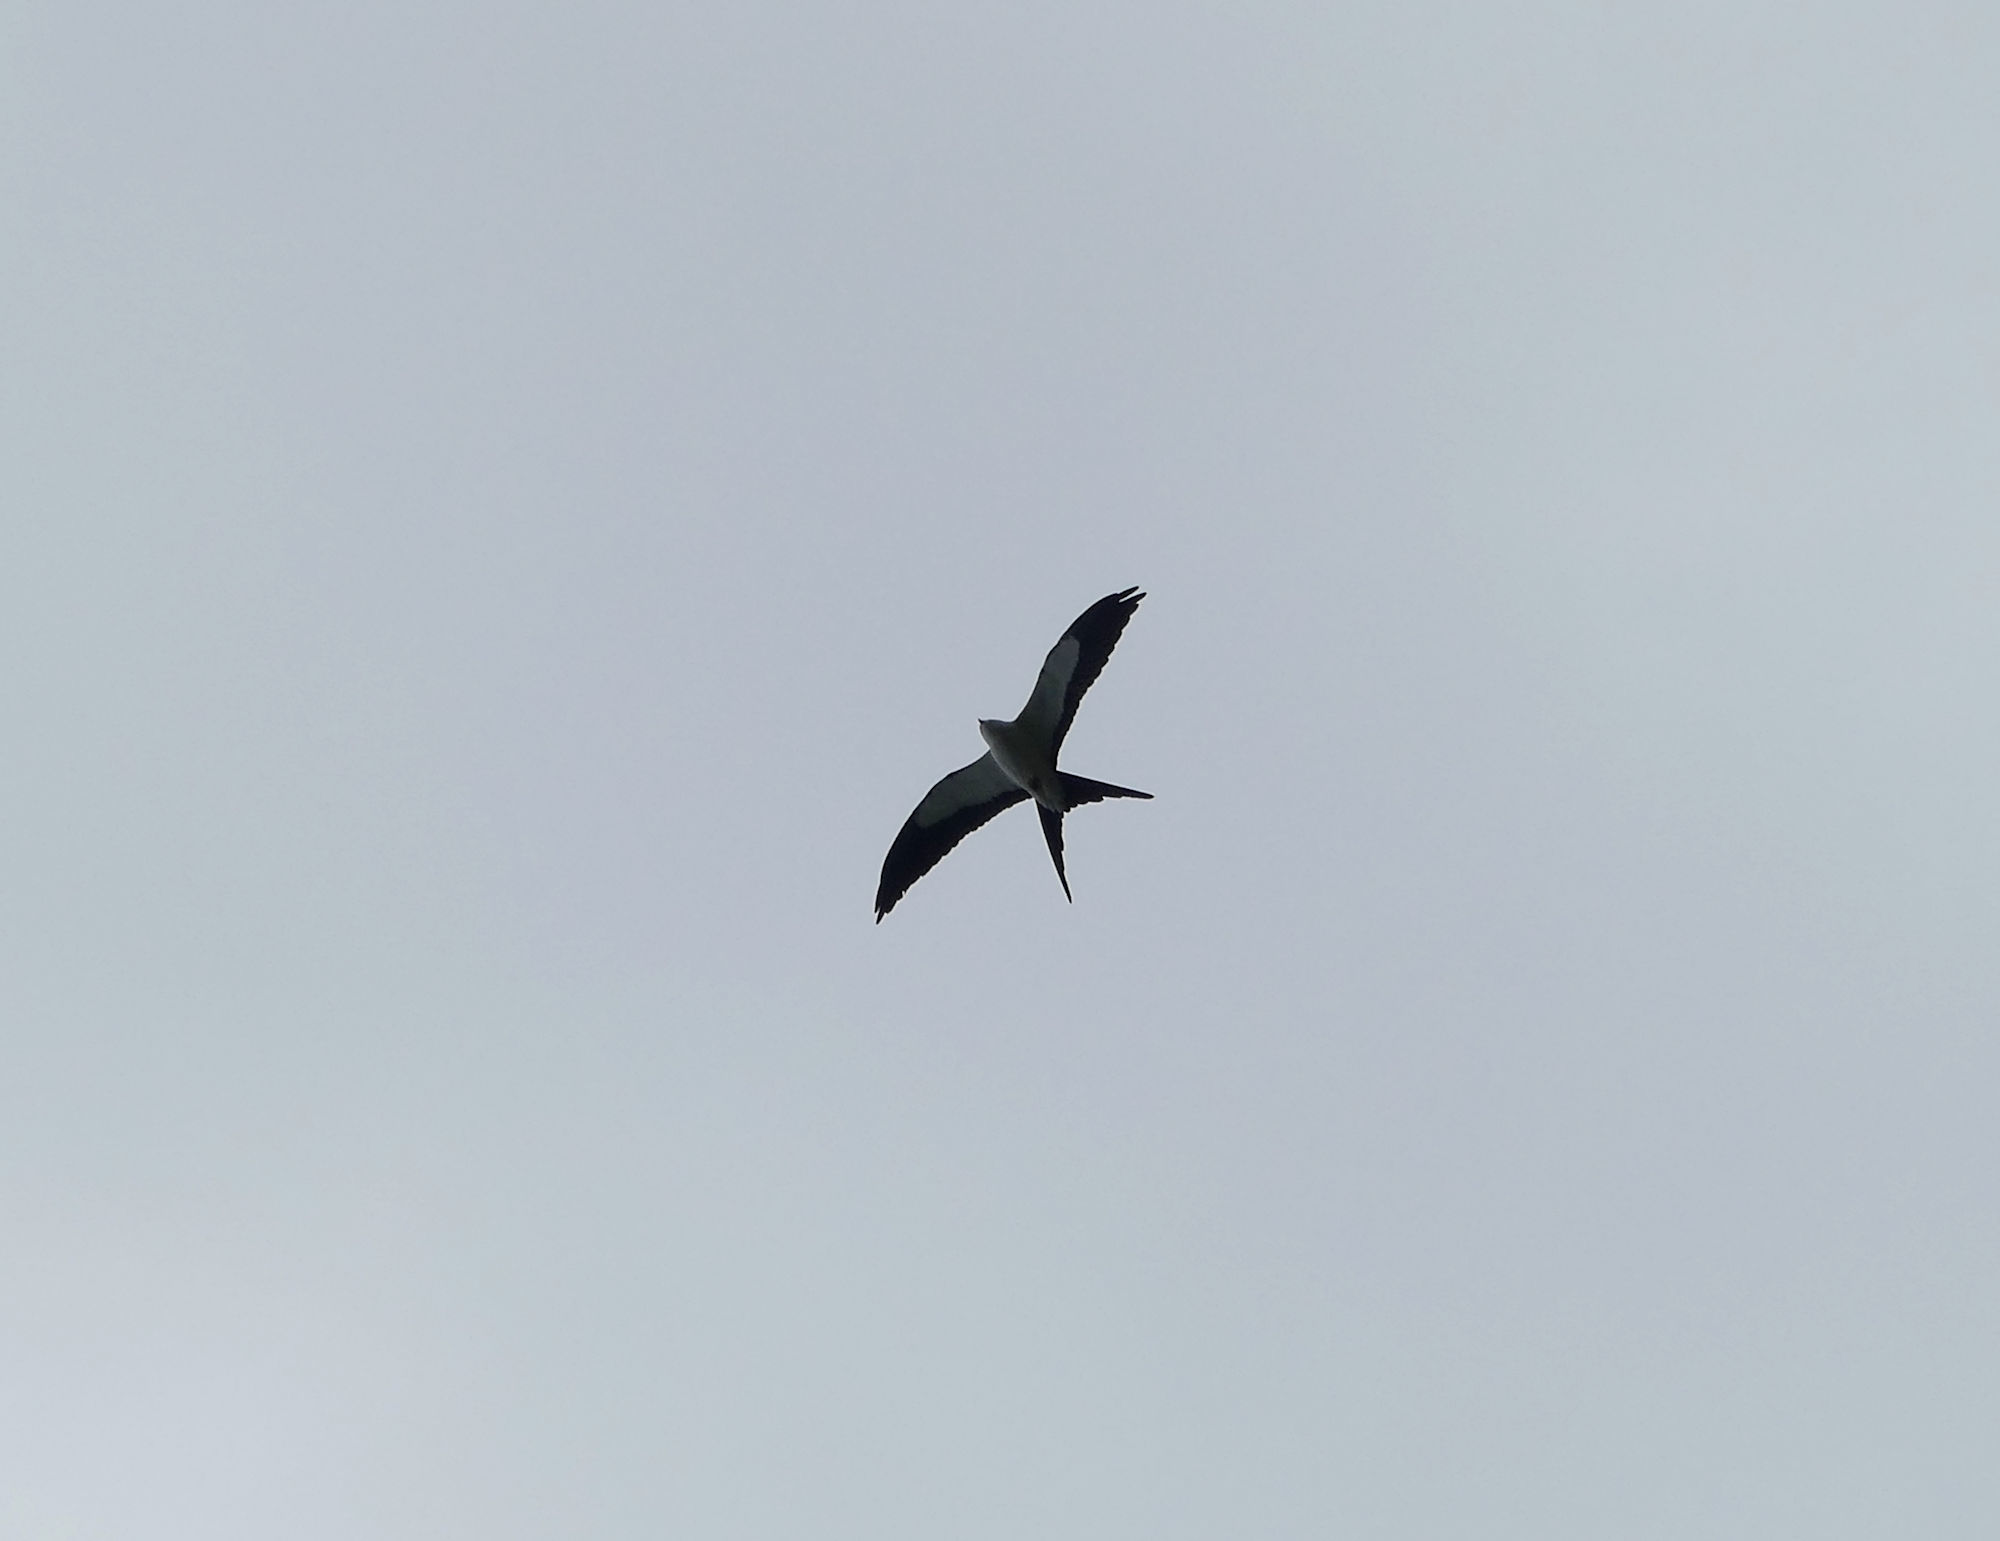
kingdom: Animalia
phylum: Chordata
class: Aves
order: Accipitriformes
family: Accipitridae
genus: Elanoides
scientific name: Elanoides forficatus
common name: Swallow-tailed kite
